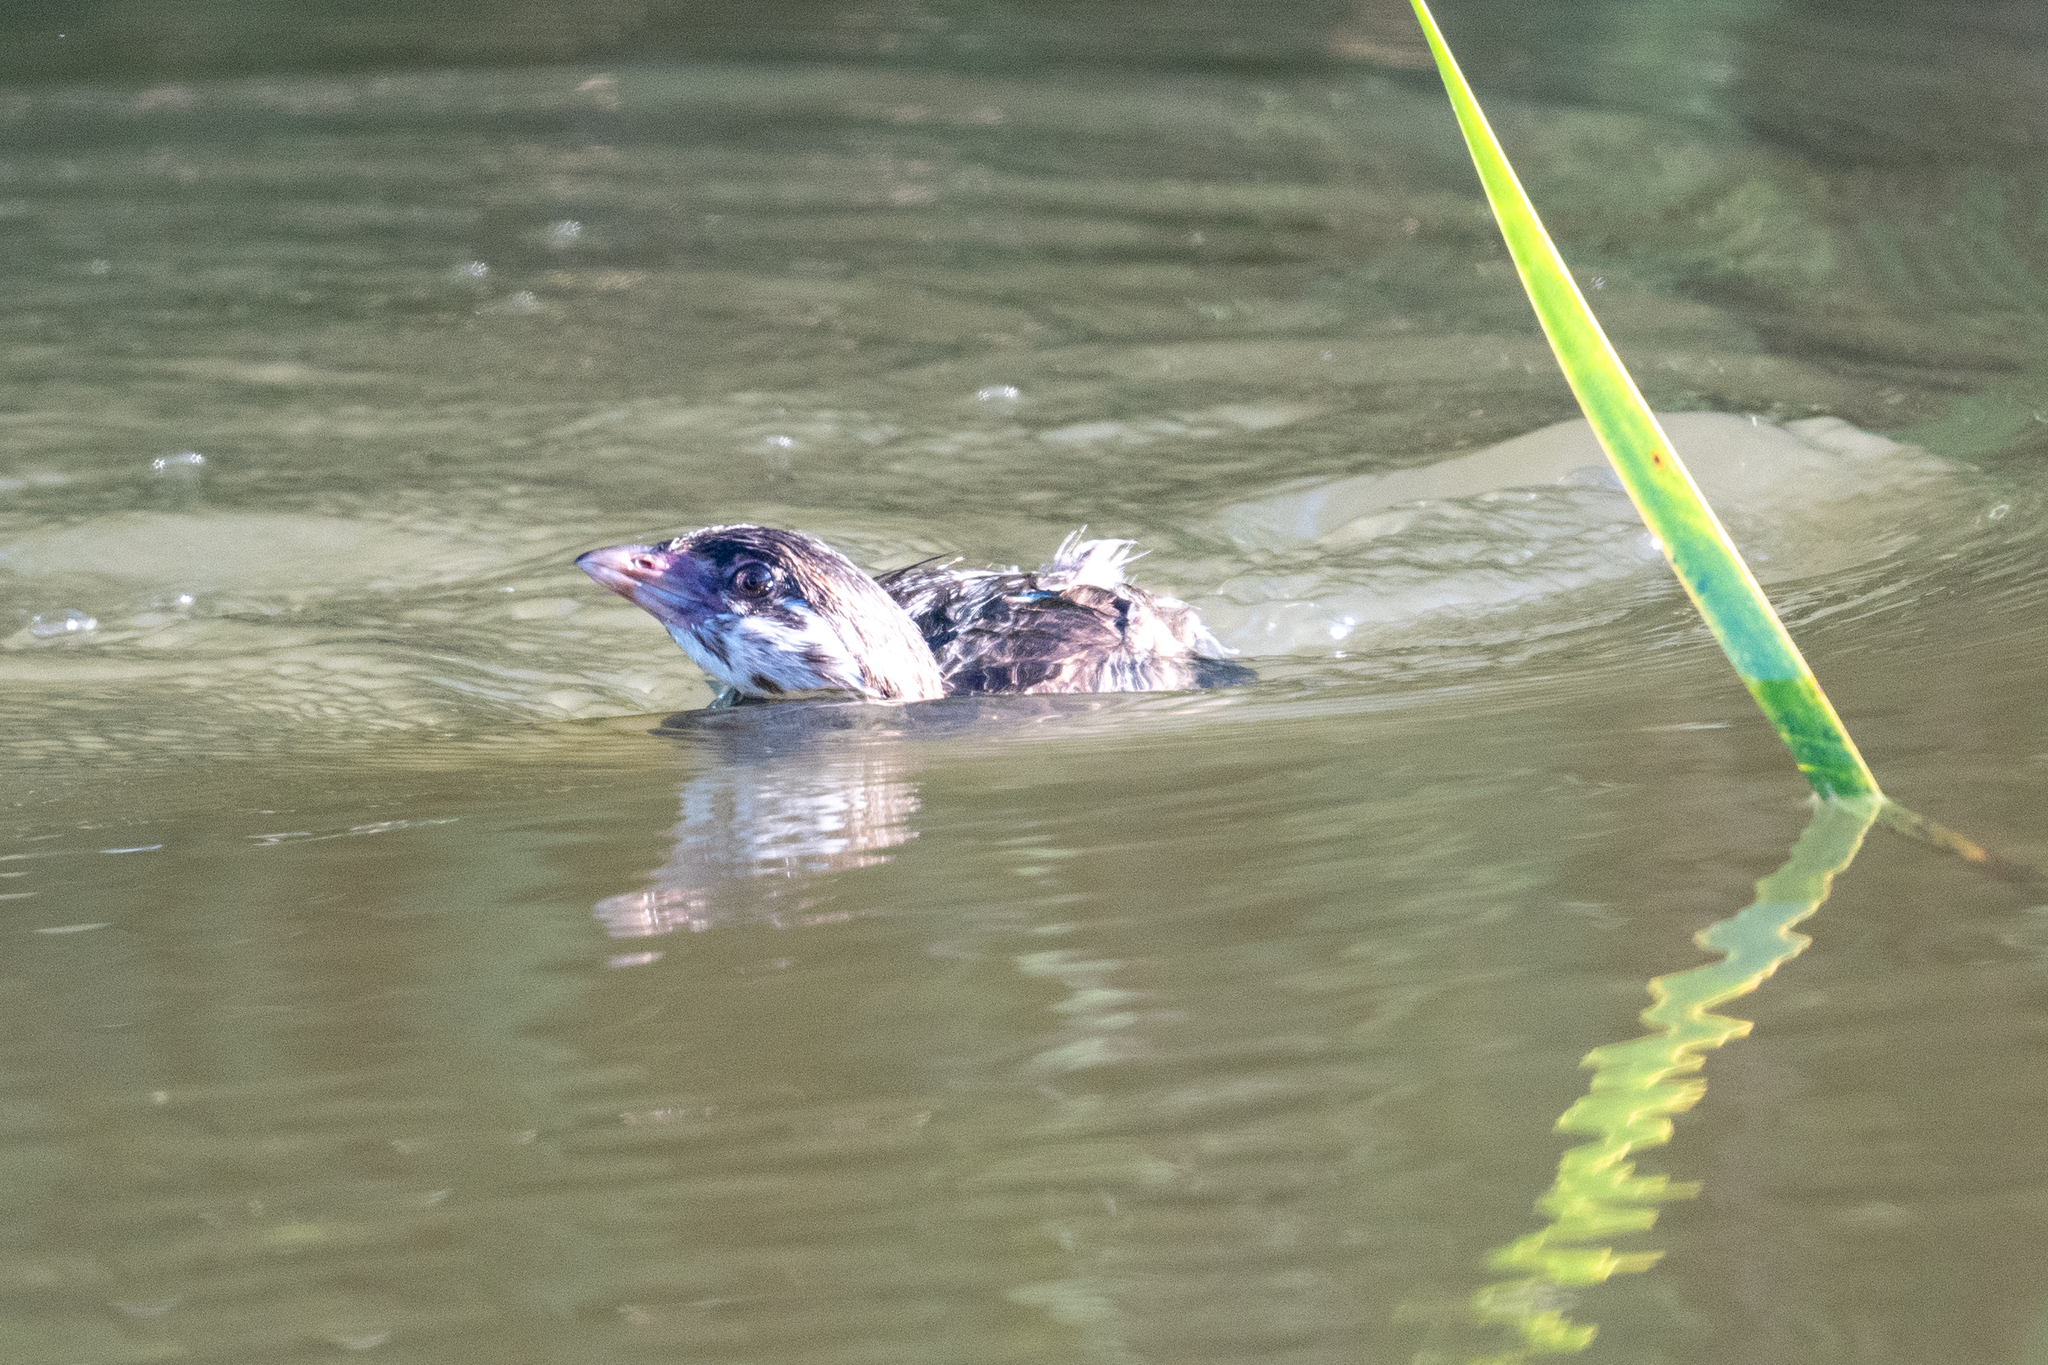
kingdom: Animalia
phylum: Chordata
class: Aves
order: Podicipediformes
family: Podicipedidae
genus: Podilymbus
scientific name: Podilymbus podiceps
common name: Pied-billed grebe
